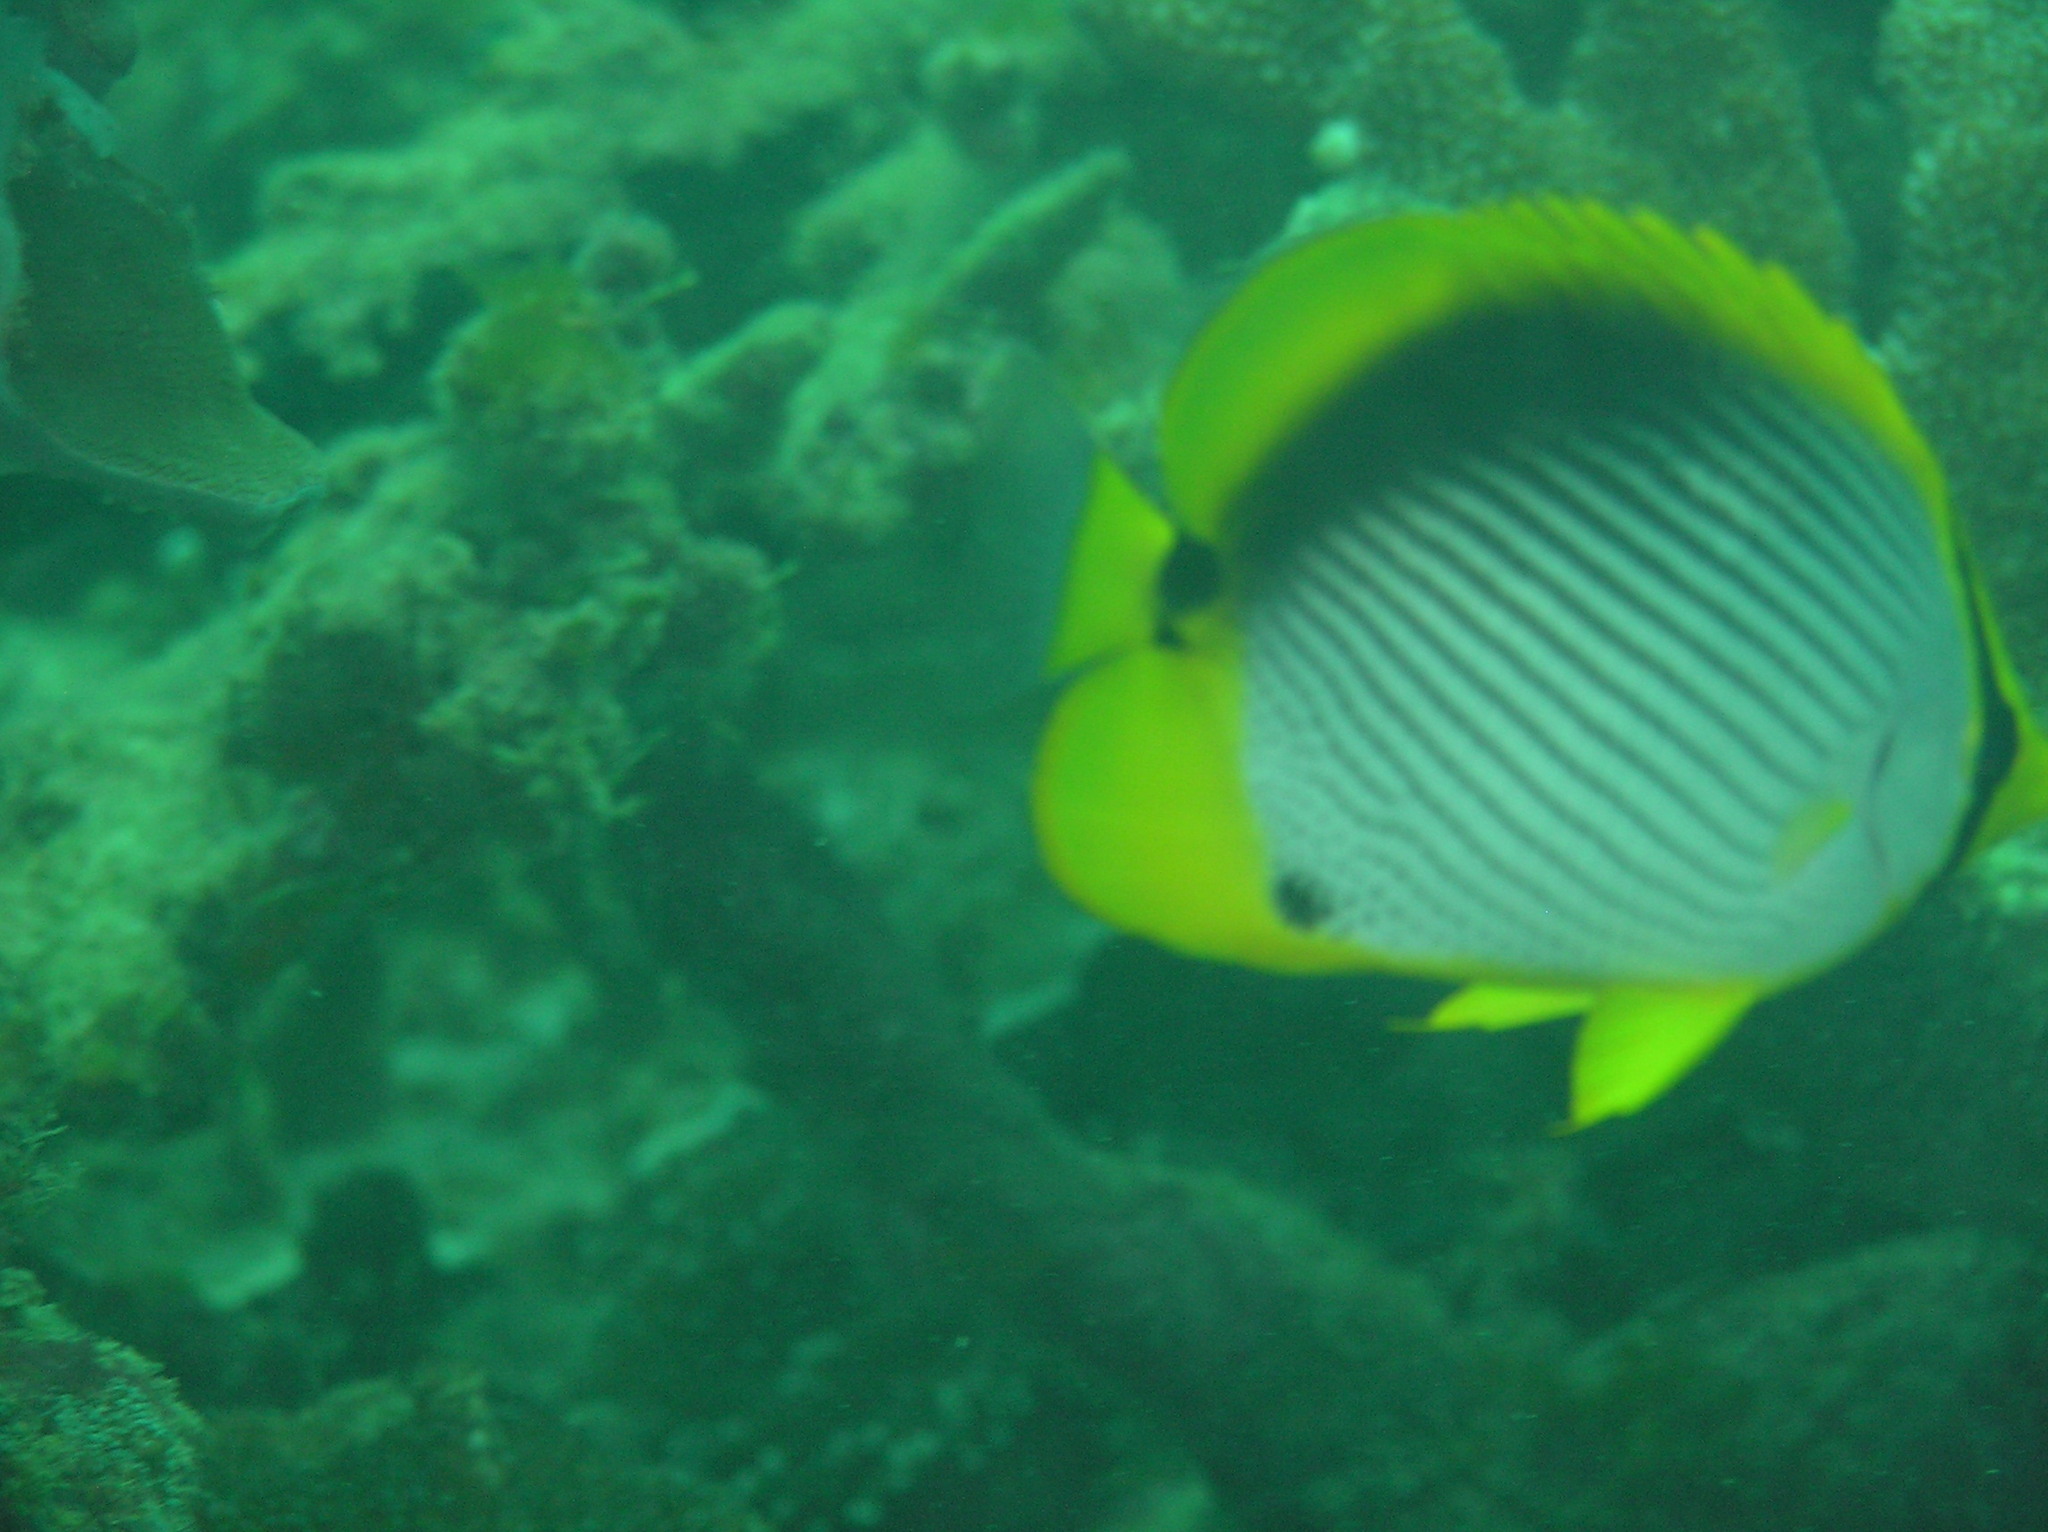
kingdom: Animalia
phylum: Chordata
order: Perciformes
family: Chaetodontidae
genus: Chaetodon
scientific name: Chaetodon melannotus
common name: Blackback butterflyfish
